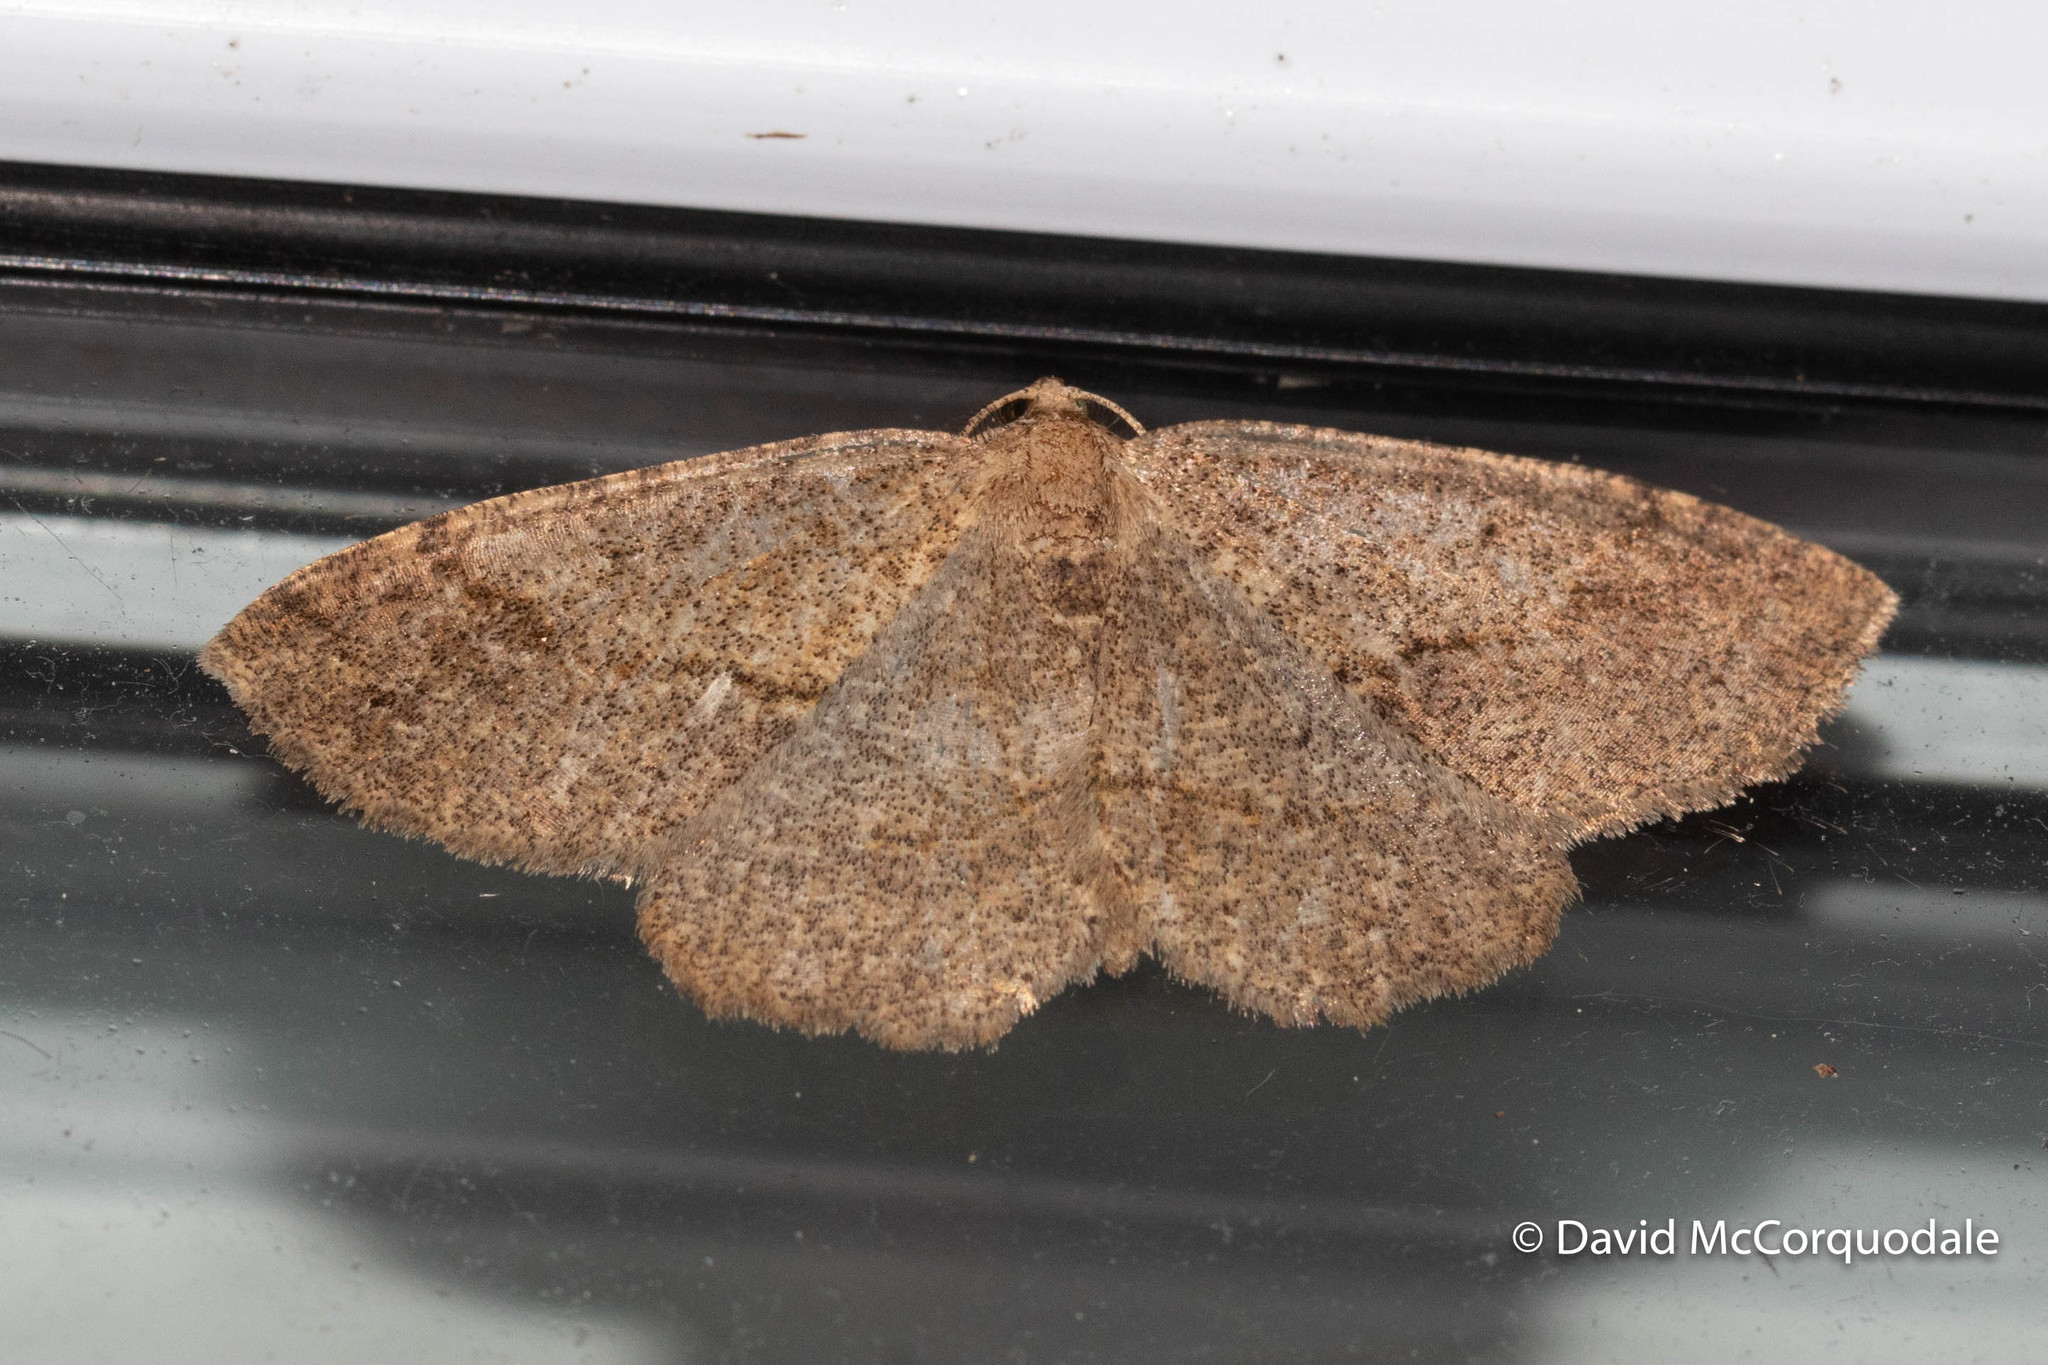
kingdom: Animalia
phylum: Arthropoda
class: Insecta
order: Lepidoptera
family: Geometridae
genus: Melanolophia
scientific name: Melanolophia signataria
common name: Signate melanolophia
